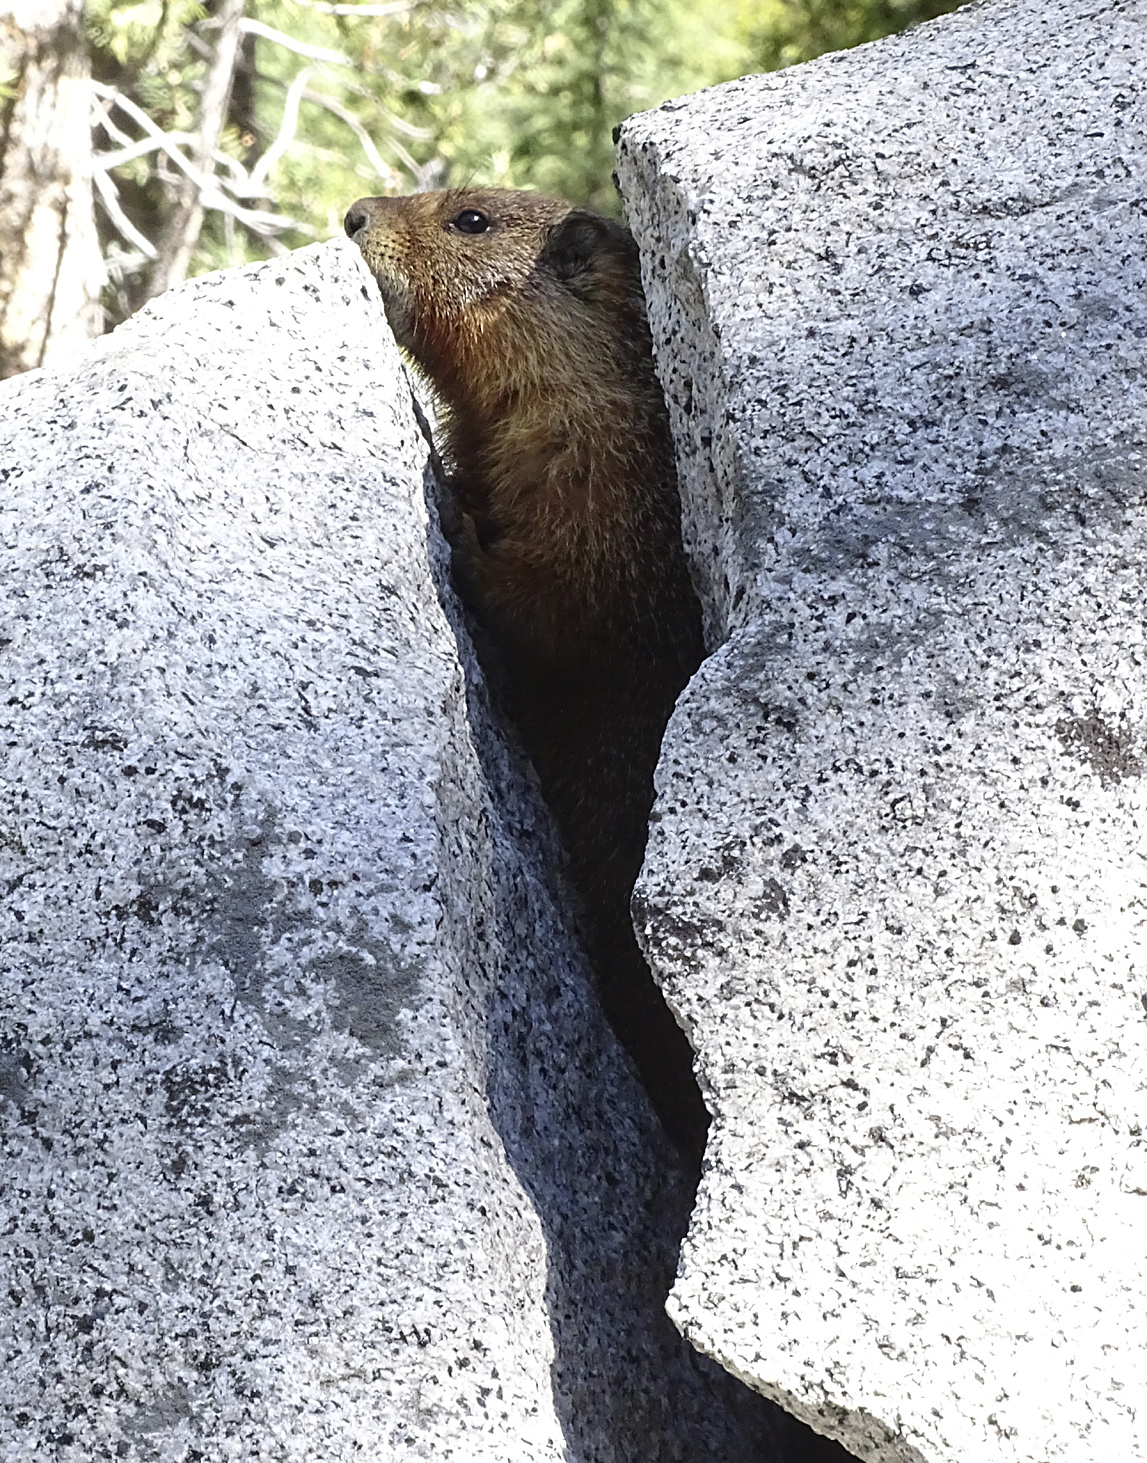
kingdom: Animalia
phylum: Chordata
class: Mammalia
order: Rodentia
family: Sciuridae
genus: Marmota
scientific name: Marmota flaviventris
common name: Yellow-bellied marmot
